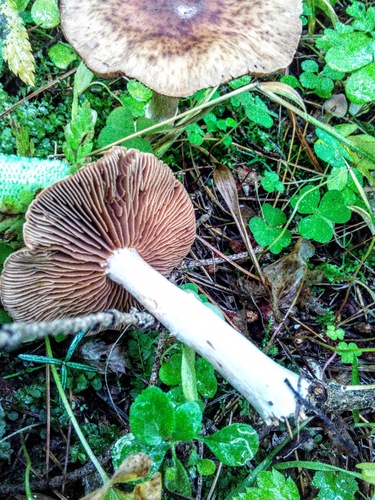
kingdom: Fungi
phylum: Basidiomycota
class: Agaricomycetes
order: Agaricales
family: Cortinariaceae
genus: Cortinarius
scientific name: Cortinarius
